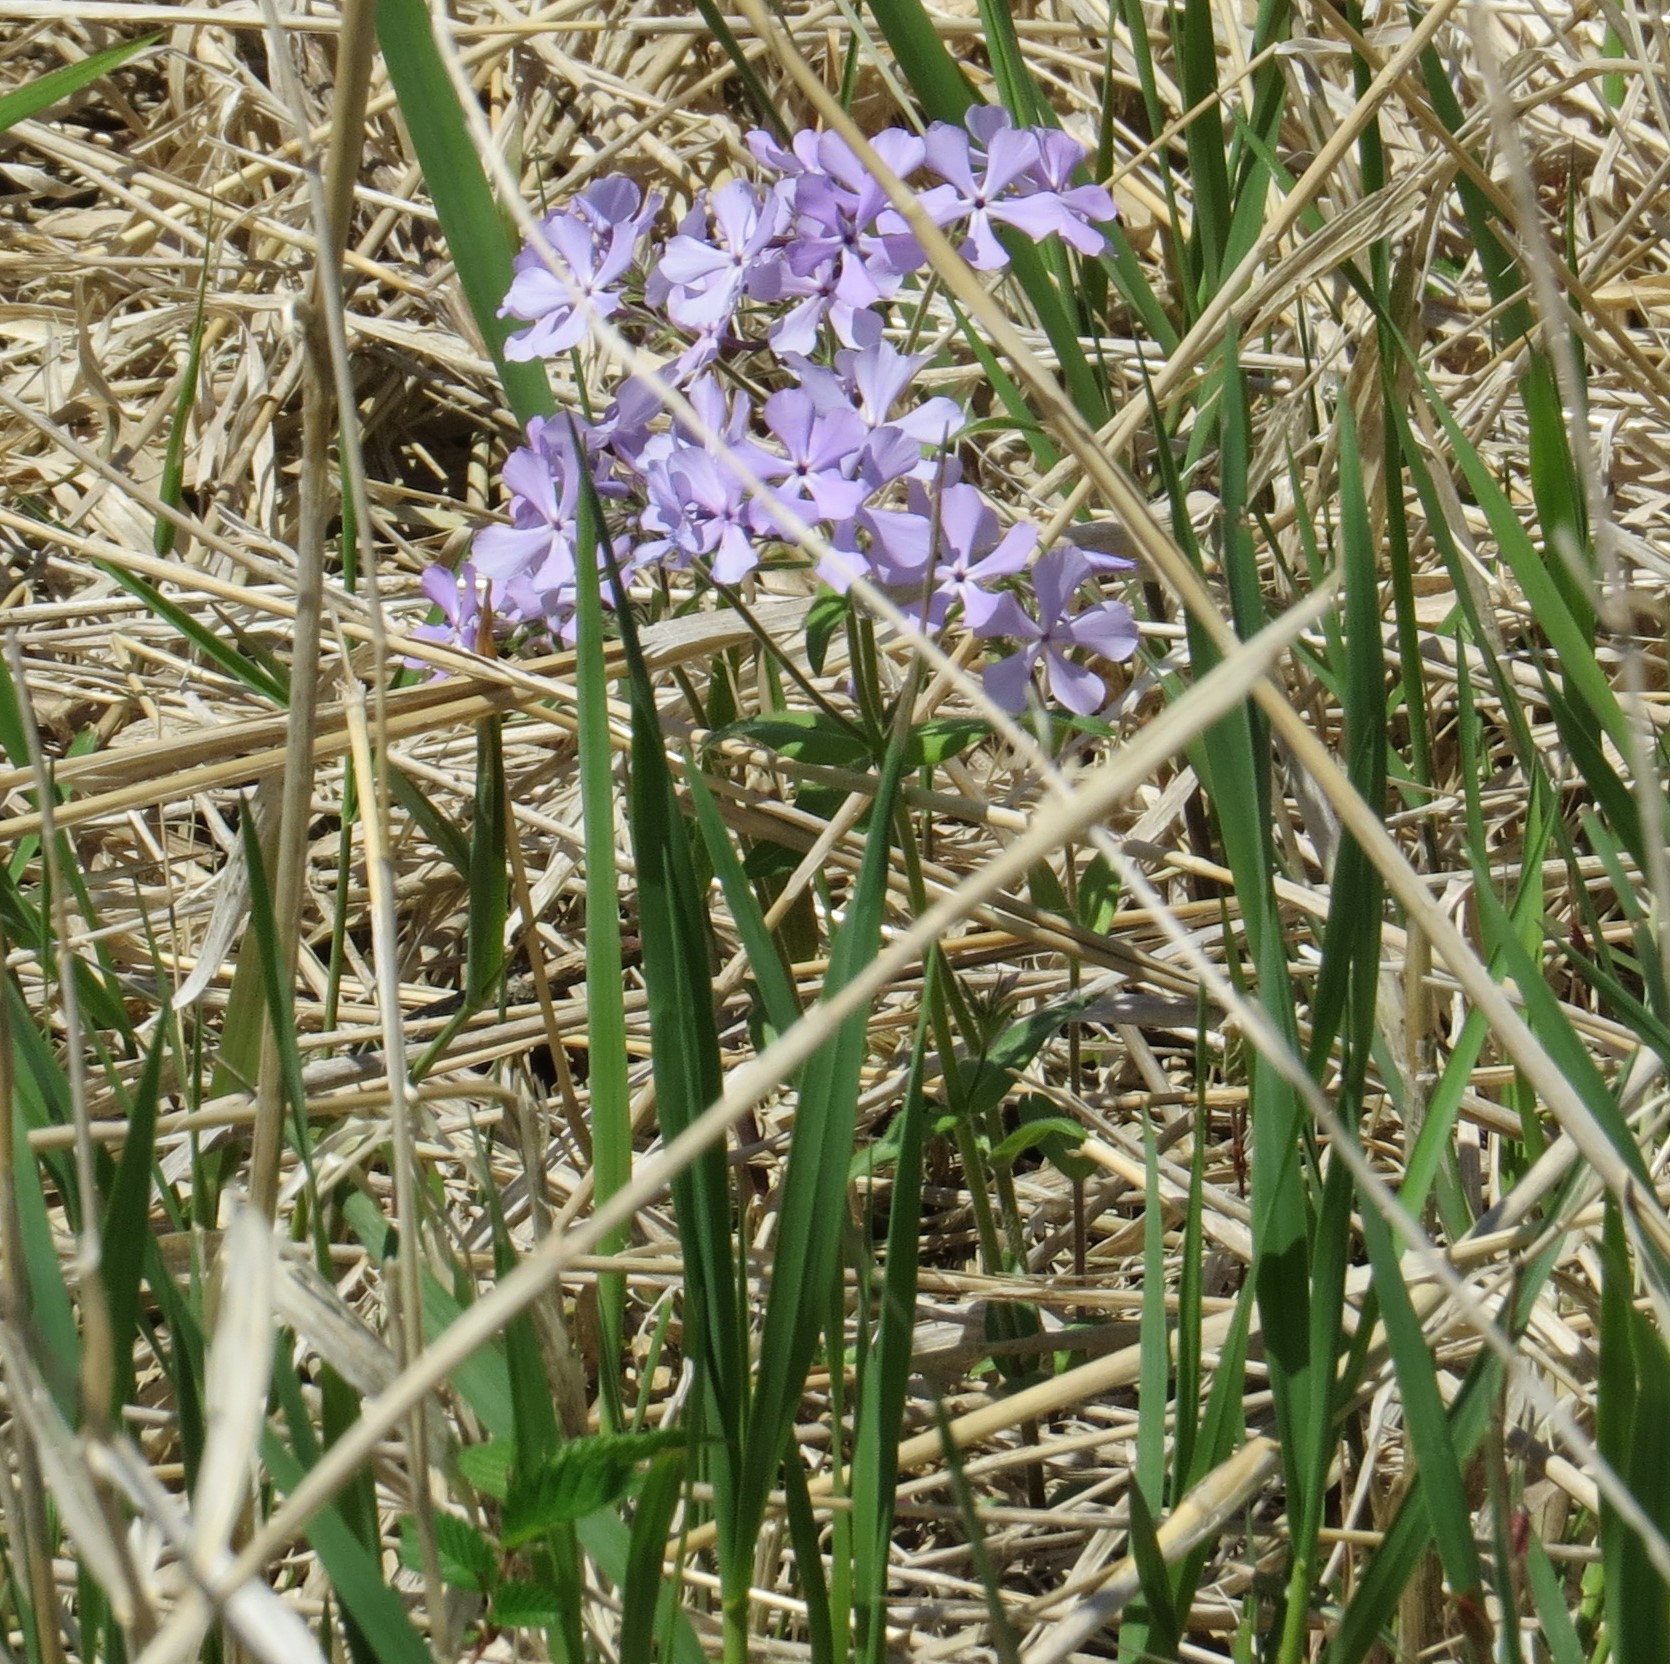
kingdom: Plantae
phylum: Tracheophyta
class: Magnoliopsida
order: Ericales
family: Polemoniaceae
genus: Phlox
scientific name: Phlox divaricata
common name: Blue phlox
